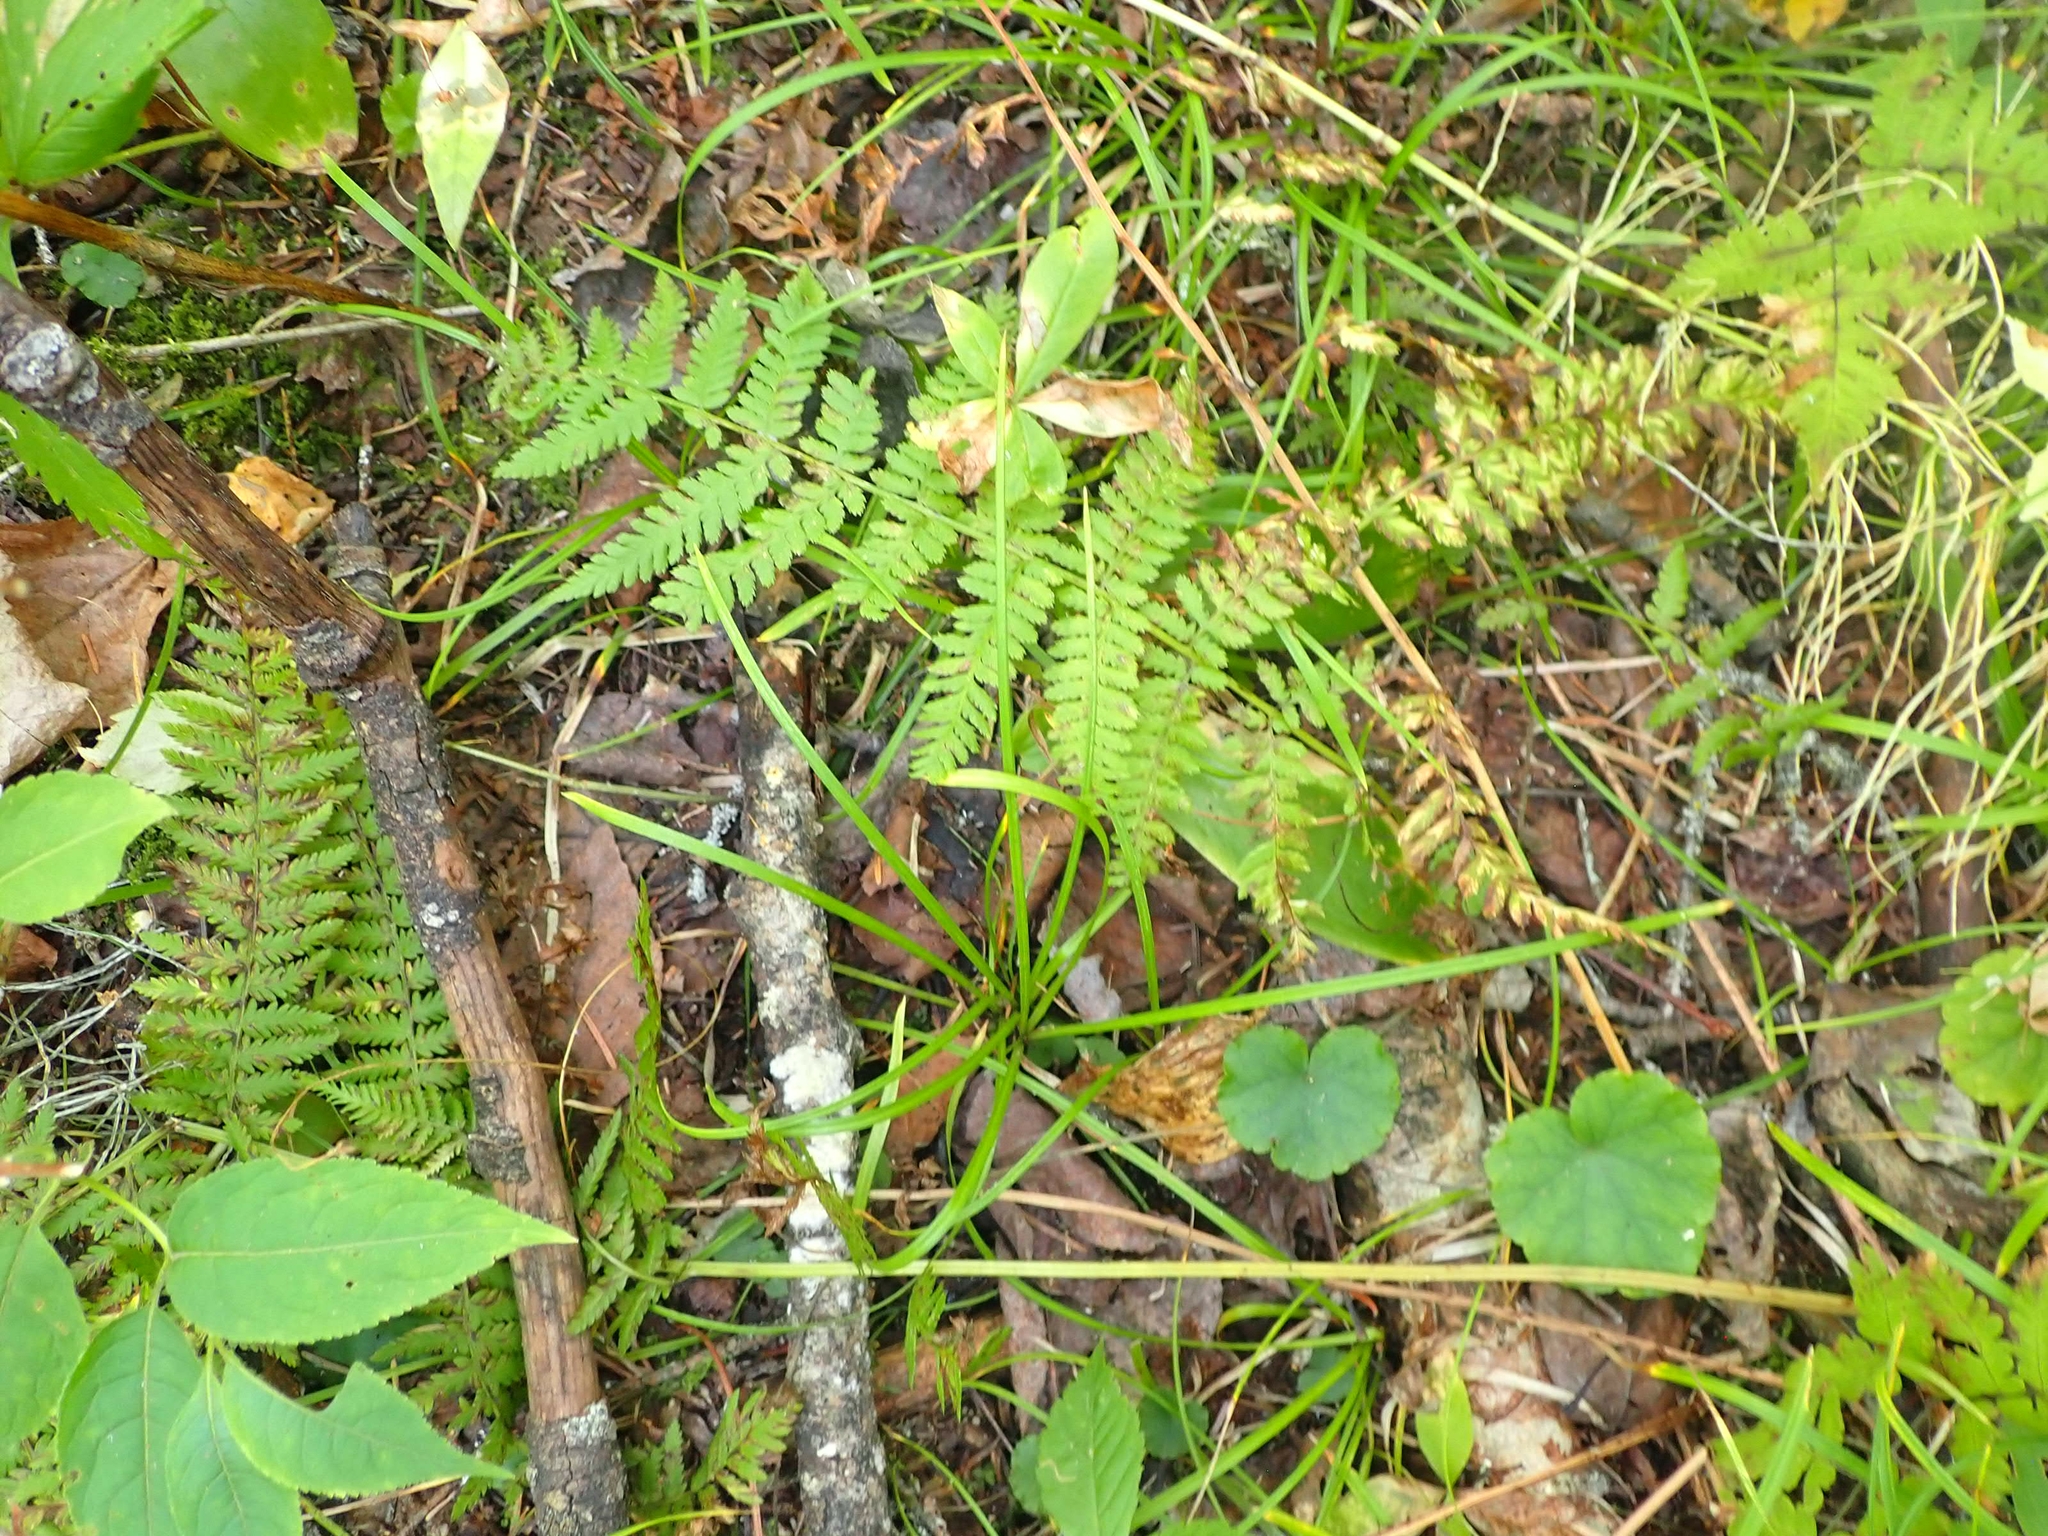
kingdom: Plantae
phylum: Tracheophyta
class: Polypodiopsida
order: Polypodiales
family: Athyriaceae
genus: Athyrium
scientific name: Athyrium angustum
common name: Northern lady fern
